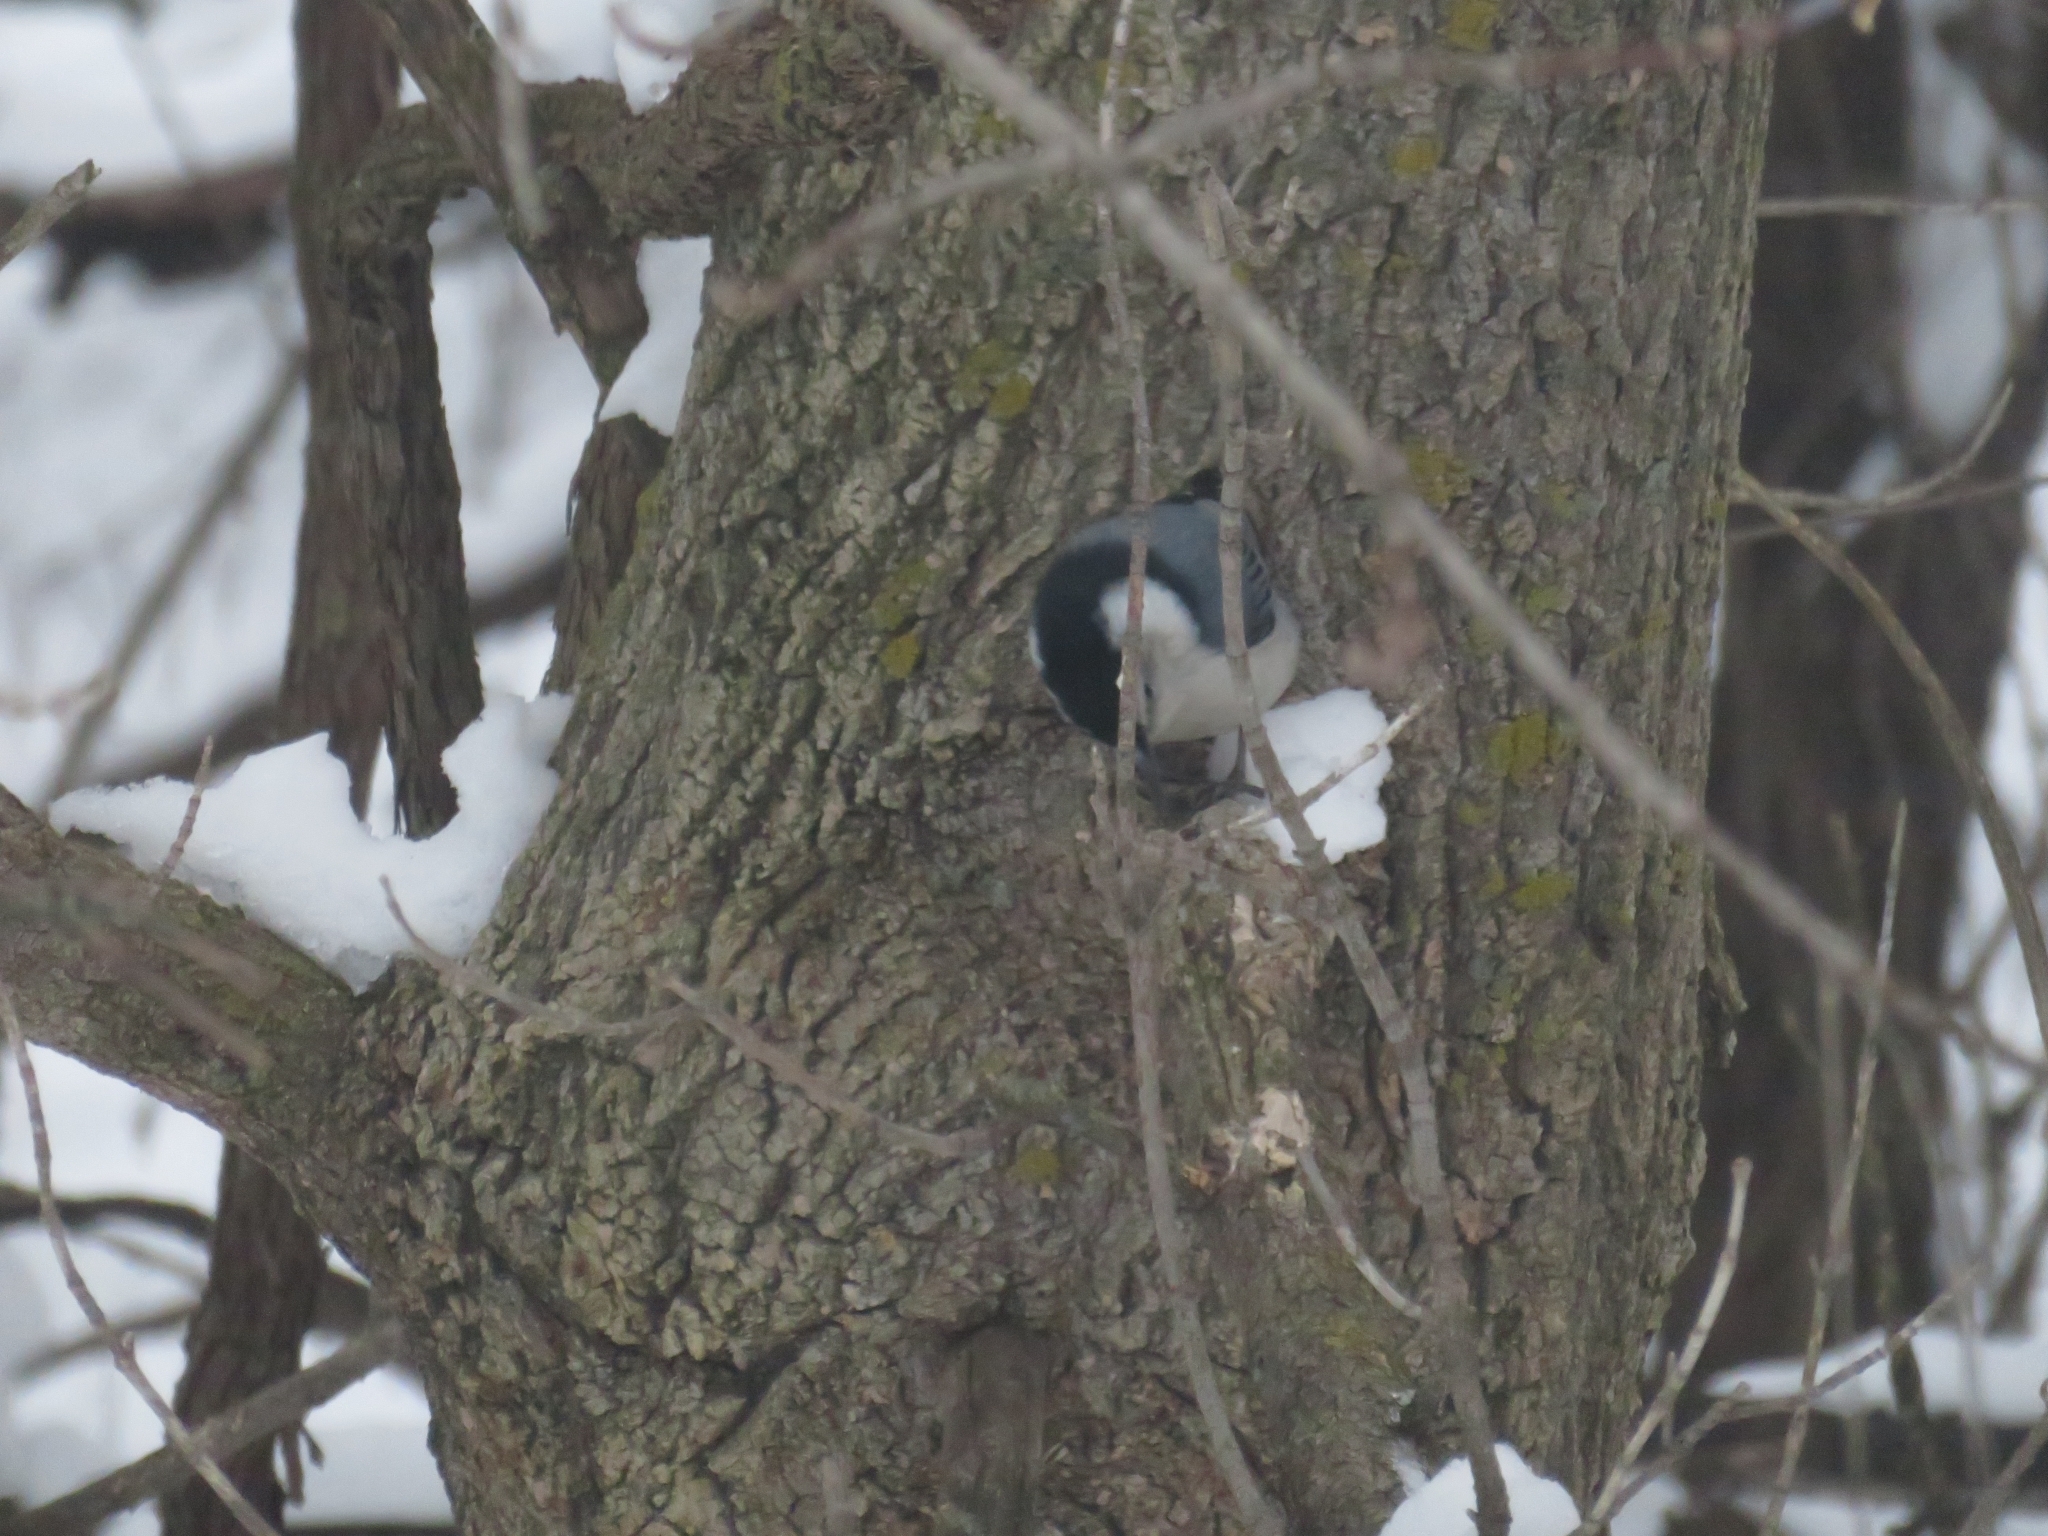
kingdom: Animalia
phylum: Chordata
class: Aves
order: Passeriformes
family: Sittidae
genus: Sitta
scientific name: Sitta carolinensis
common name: White-breasted nuthatch
